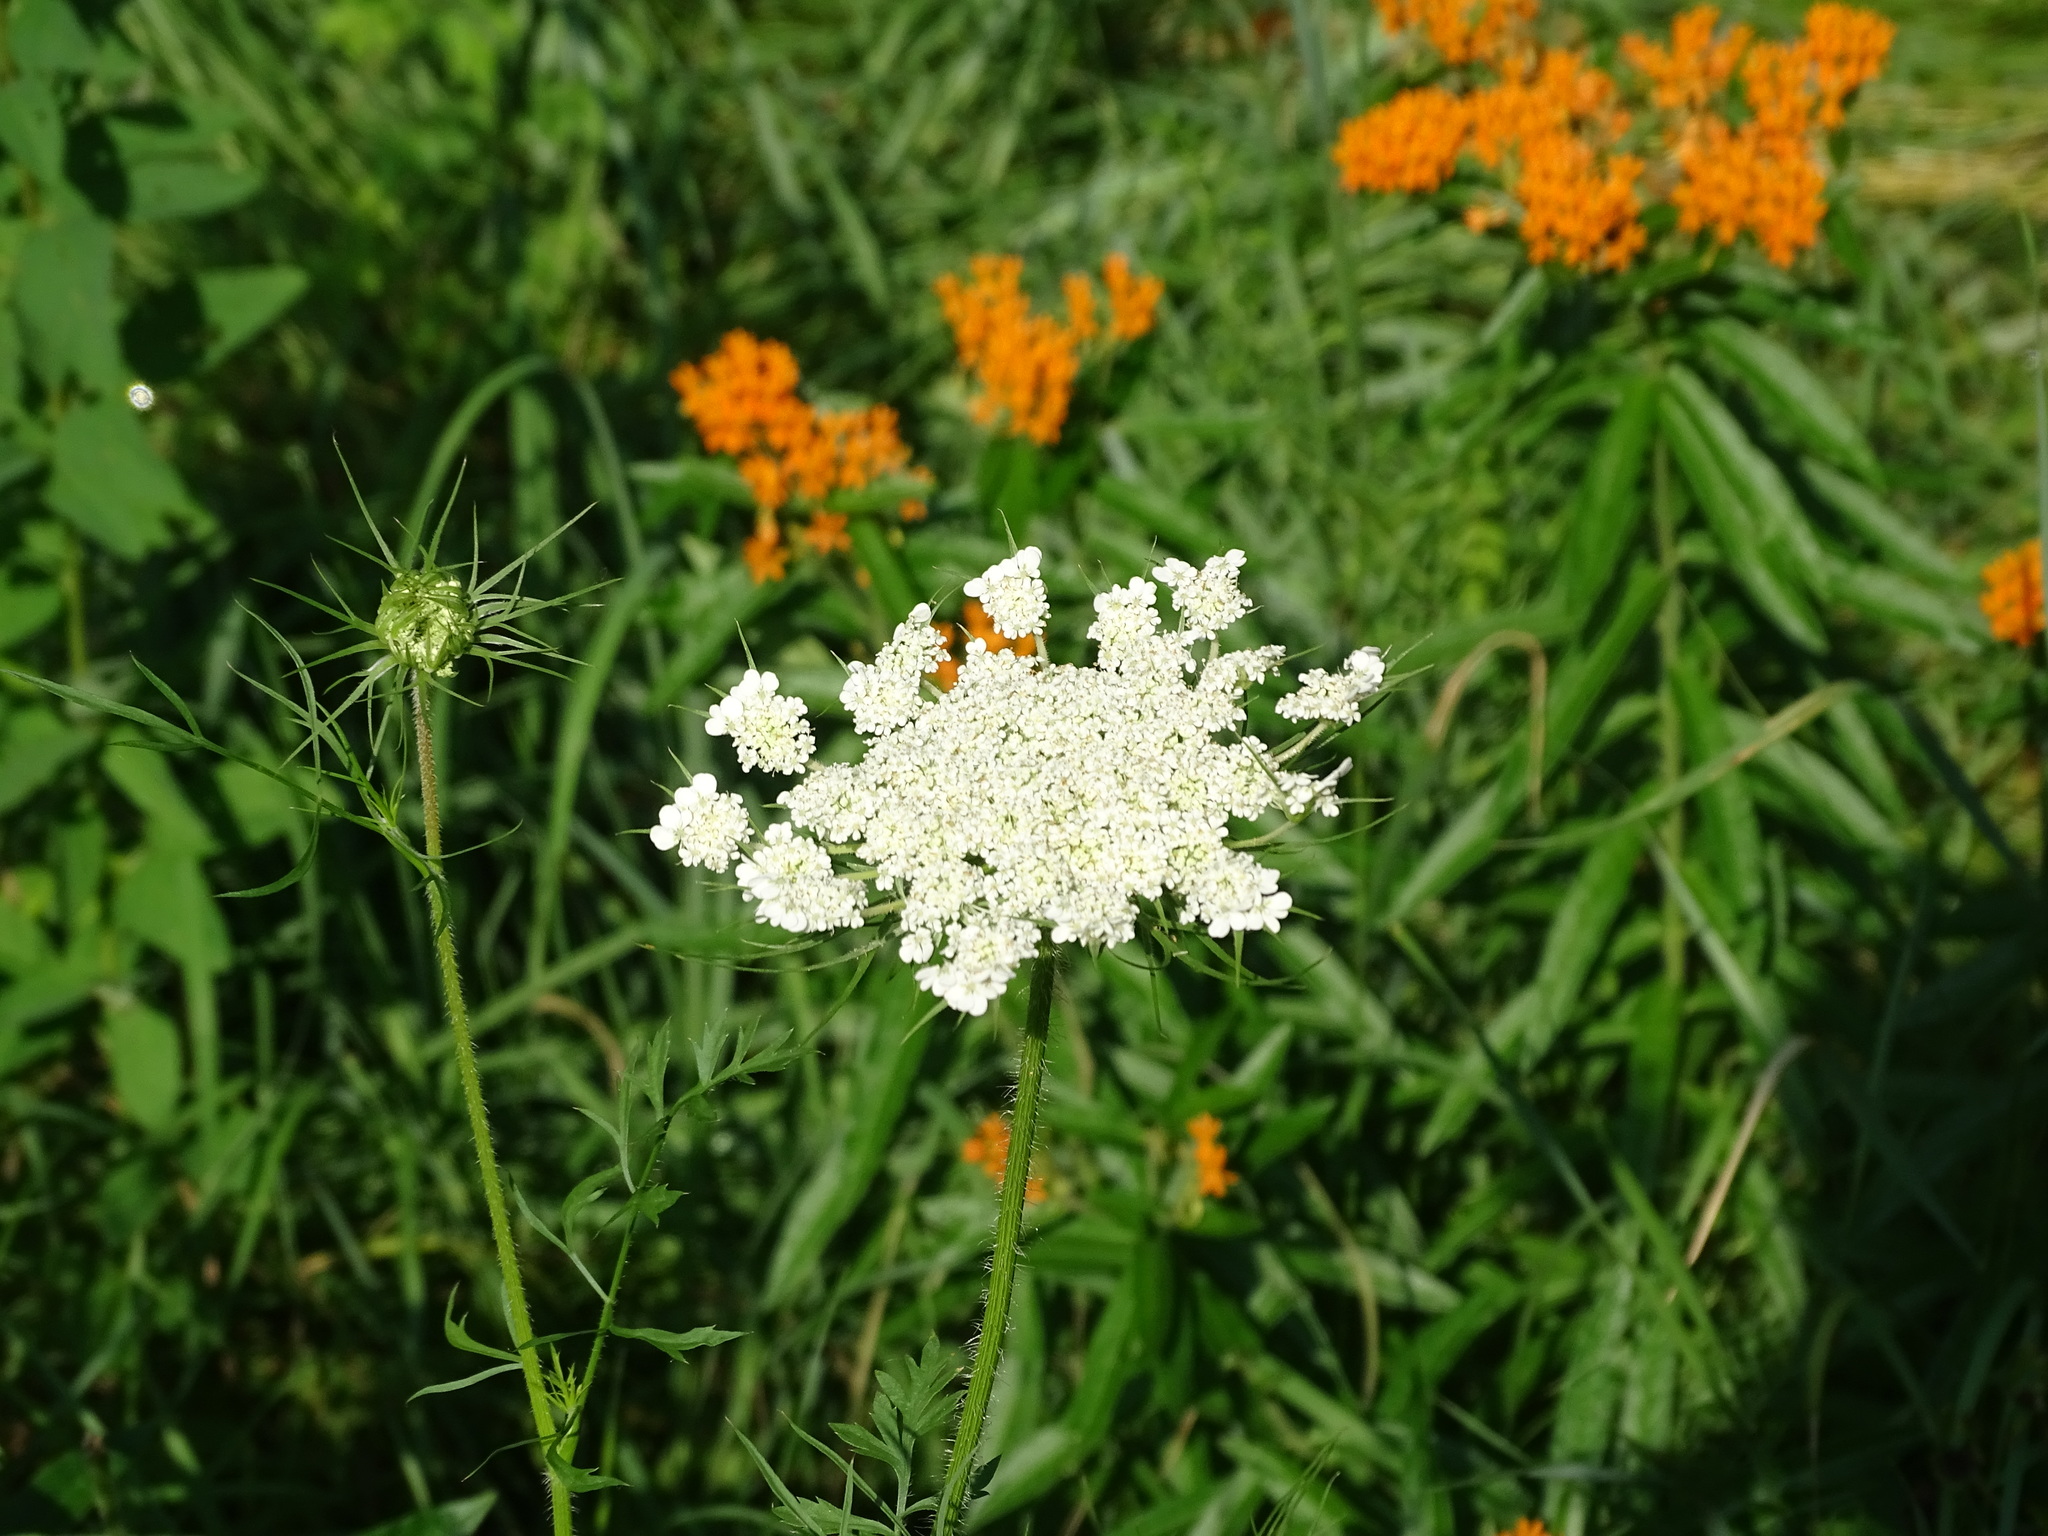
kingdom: Plantae
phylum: Tracheophyta
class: Magnoliopsida
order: Apiales
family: Apiaceae
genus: Daucus
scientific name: Daucus carota
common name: Wild carrot
